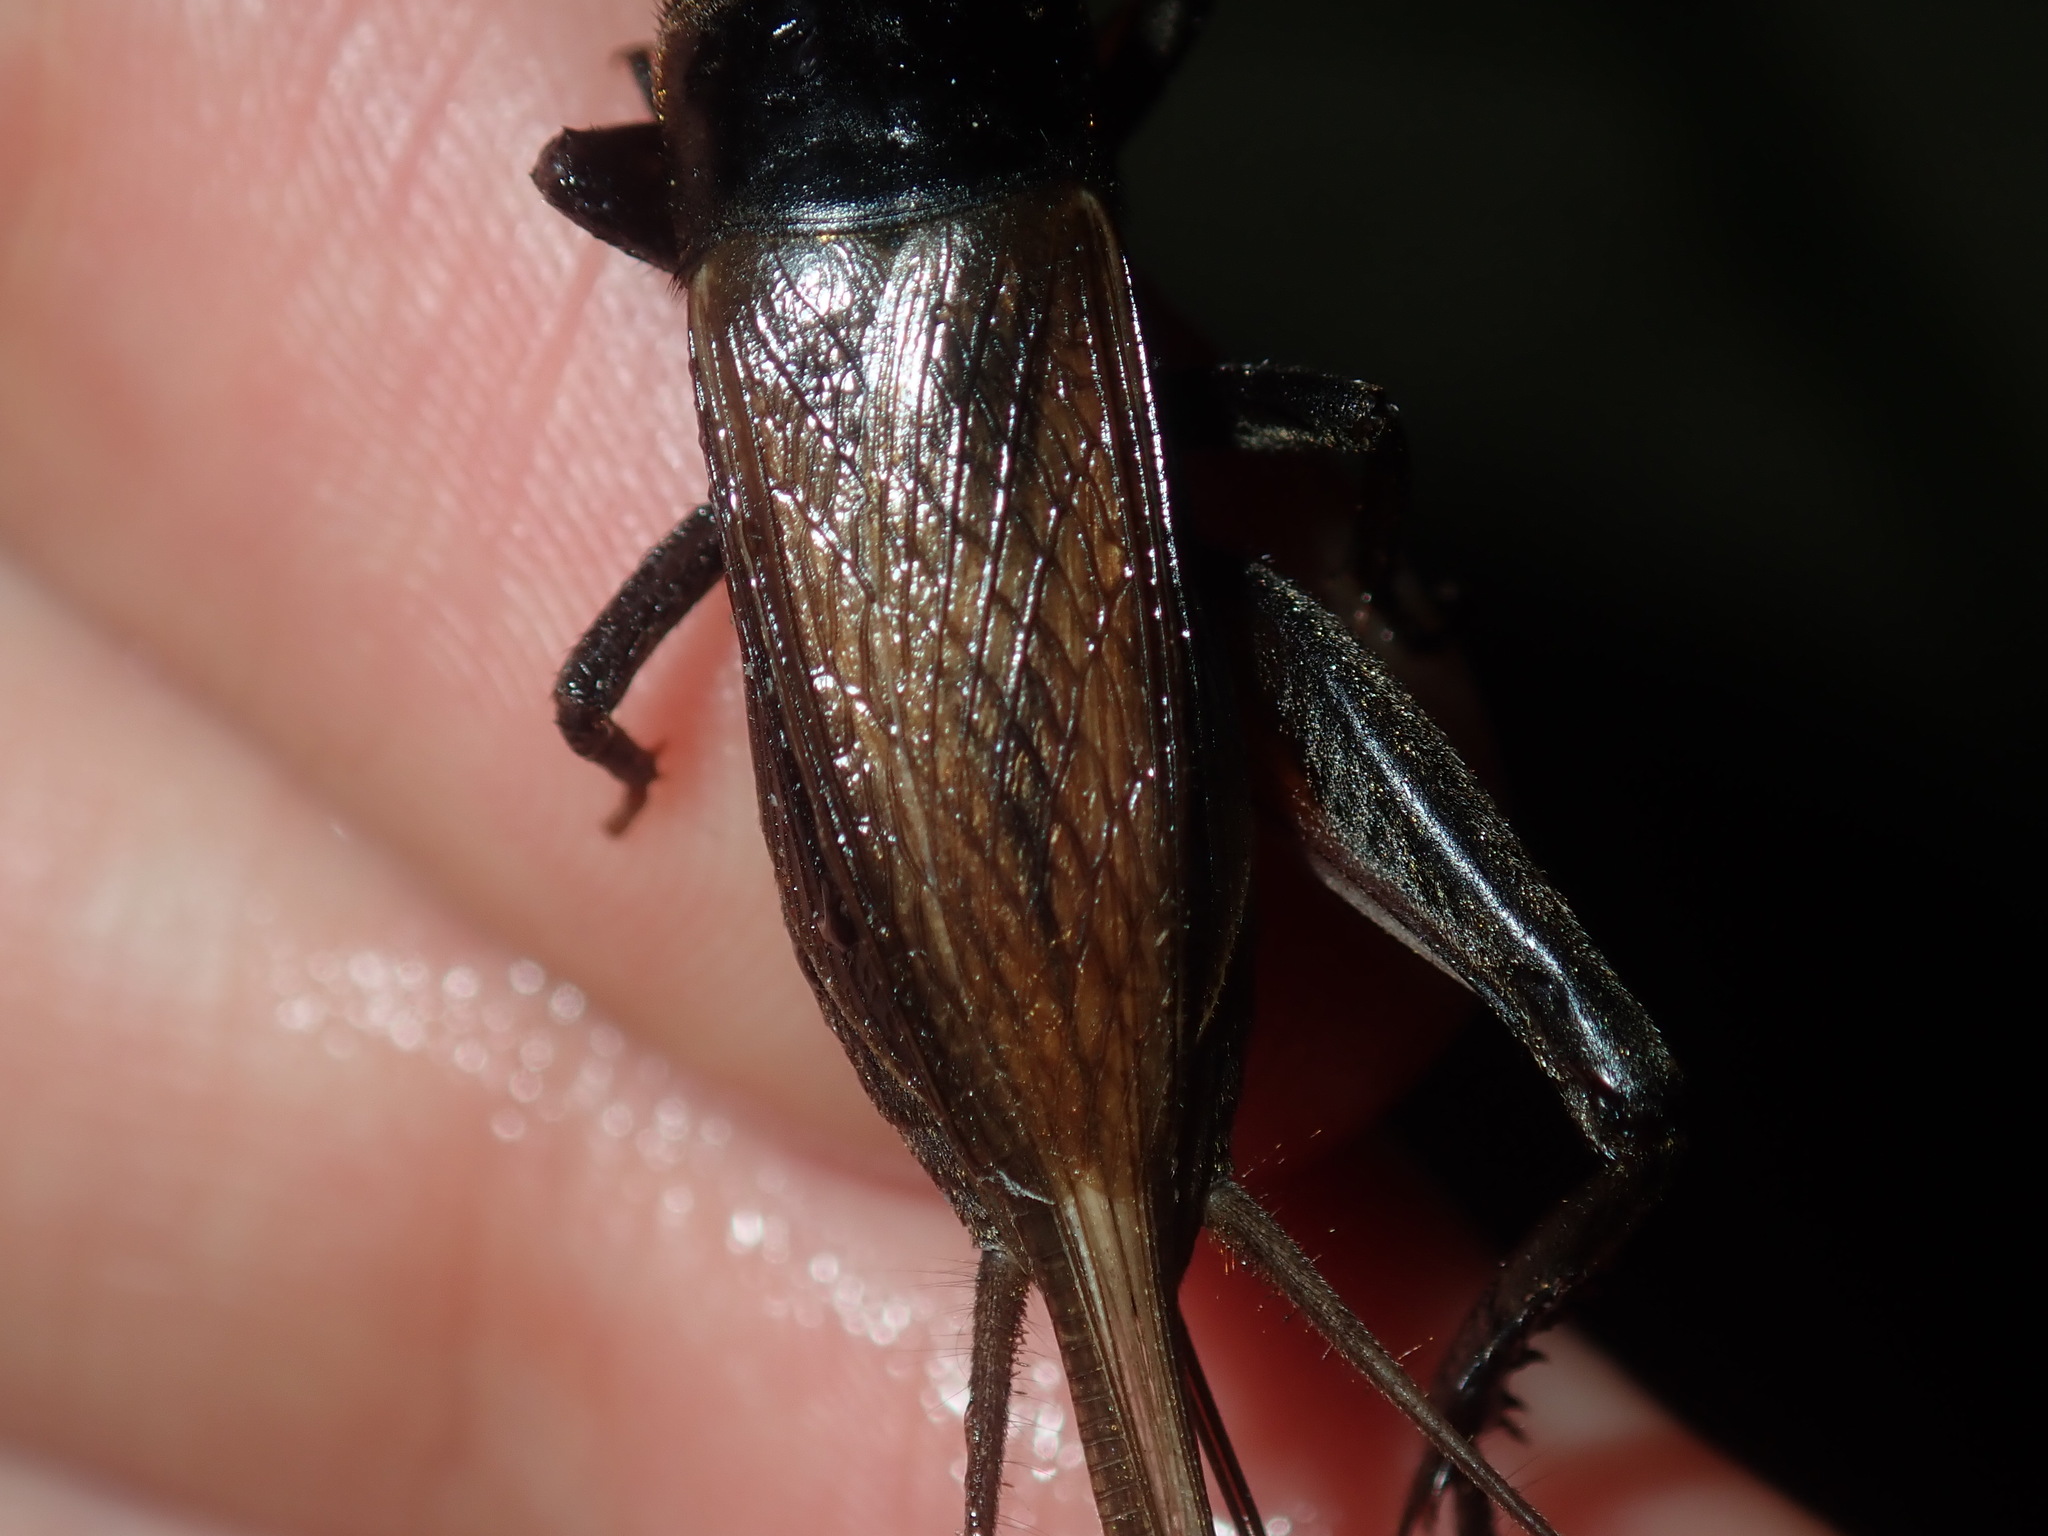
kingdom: Animalia
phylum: Arthropoda
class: Insecta
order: Orthoptera
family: Gryllidae
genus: Teleogryllus
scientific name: Teleogryllus commodus
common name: Black field cricket
